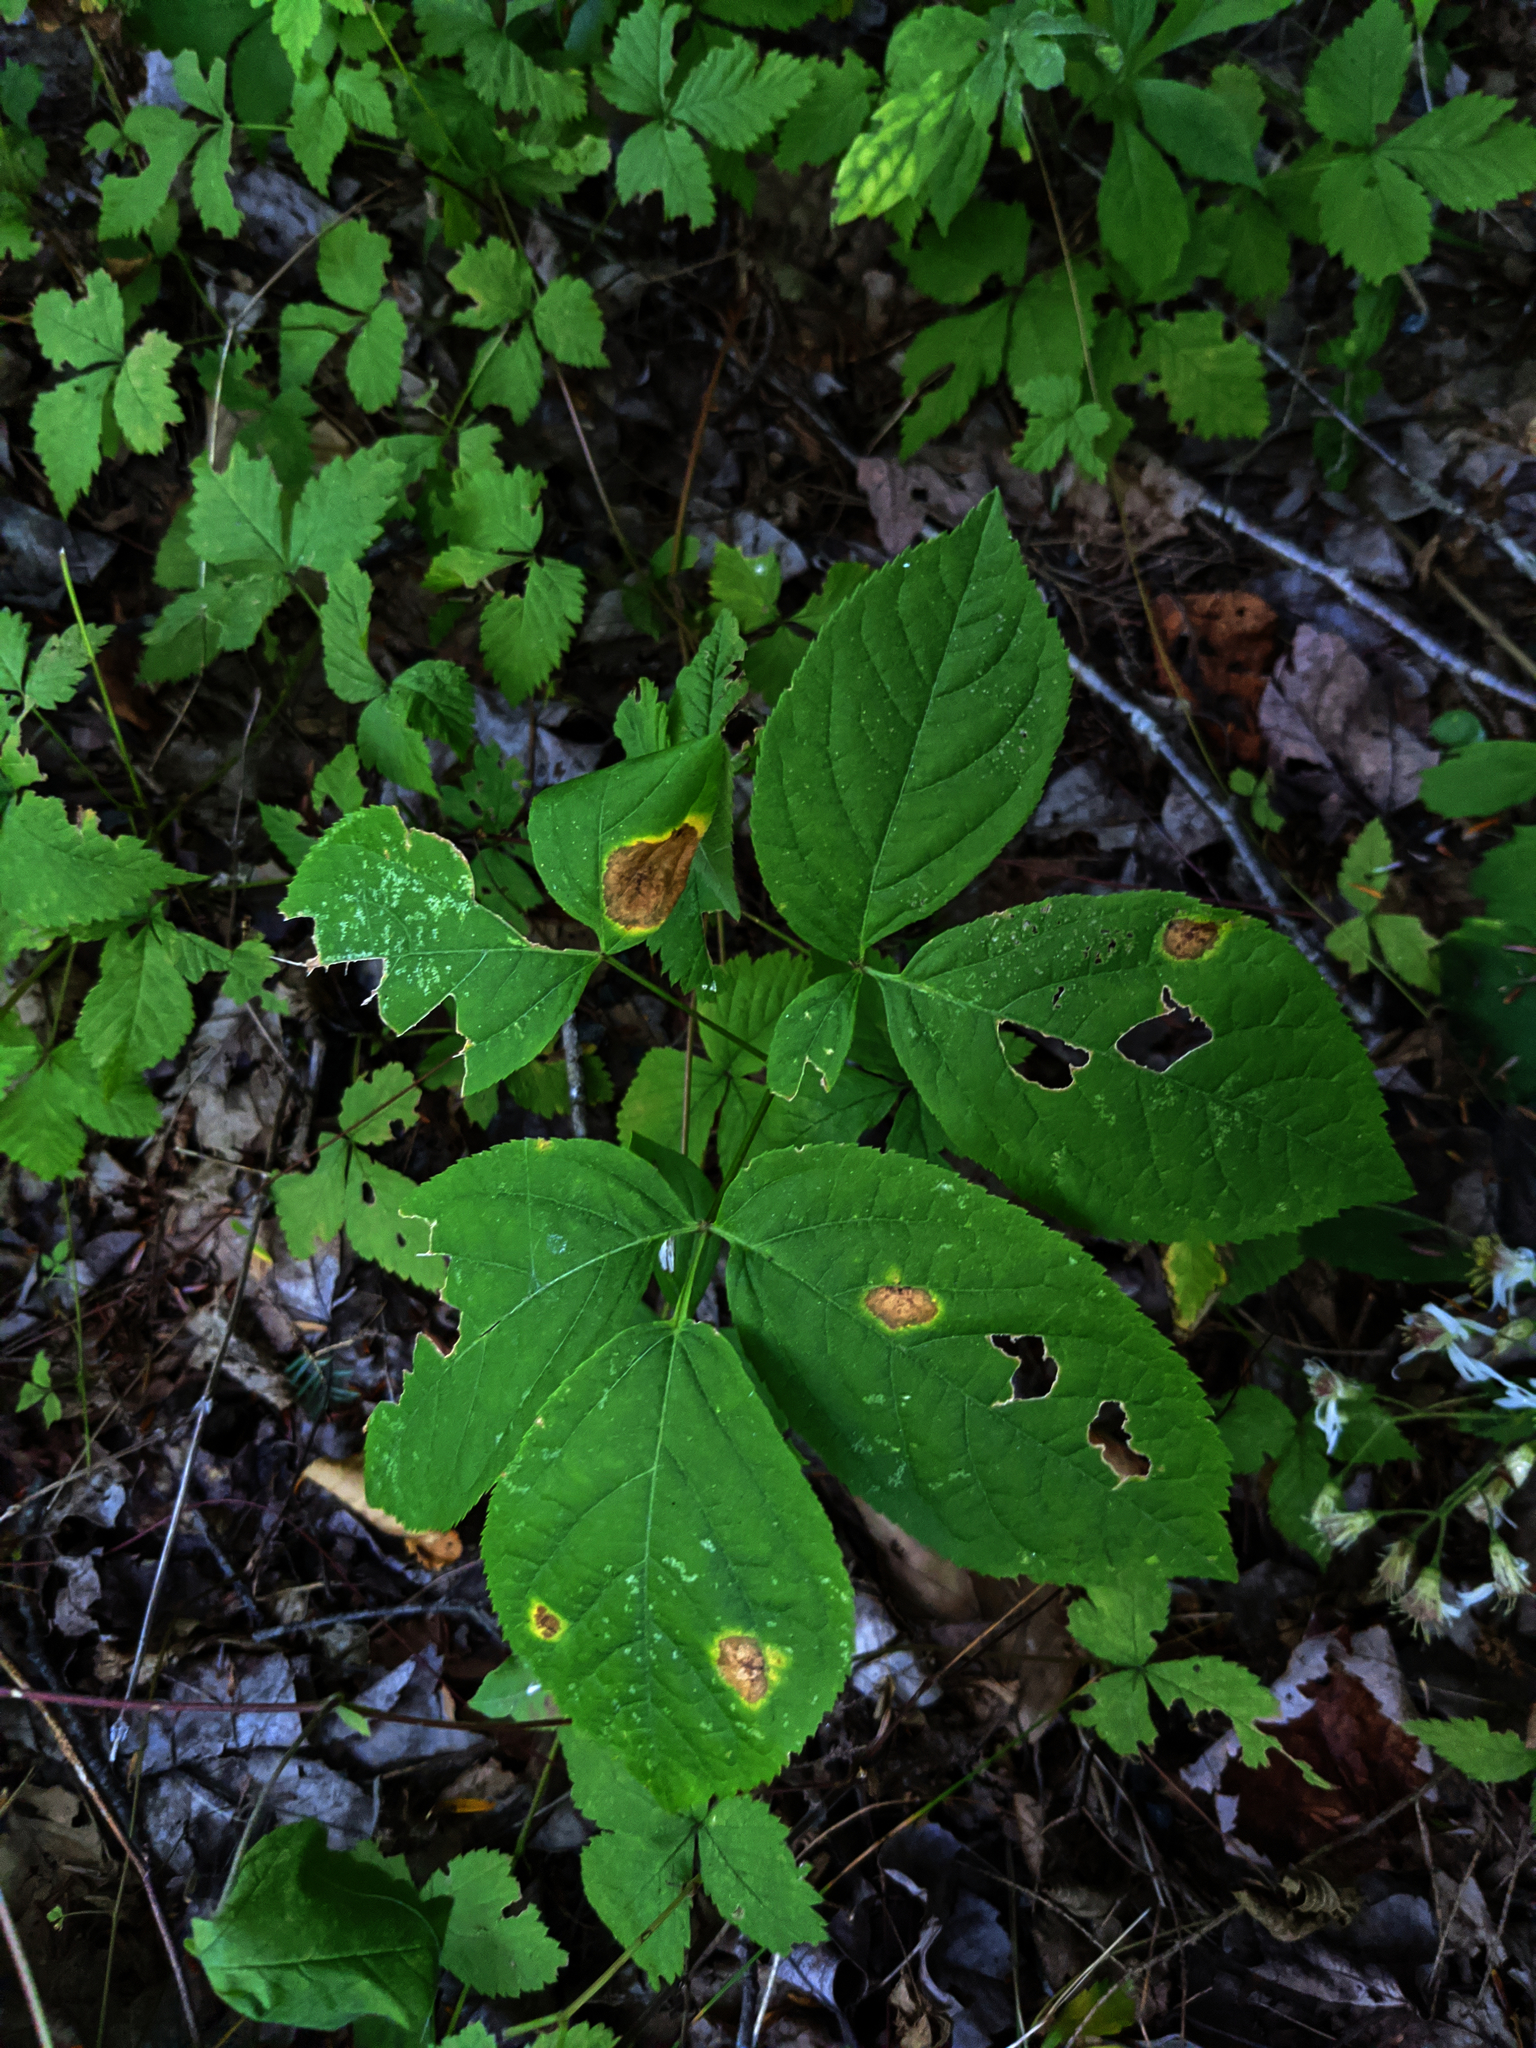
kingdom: Plantae
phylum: Tracheophyta
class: Magnoliopsida
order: Apiales
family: Araliaceae
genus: Aralia
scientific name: Aralia nudicaulis
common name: Wild sarsaparilla
